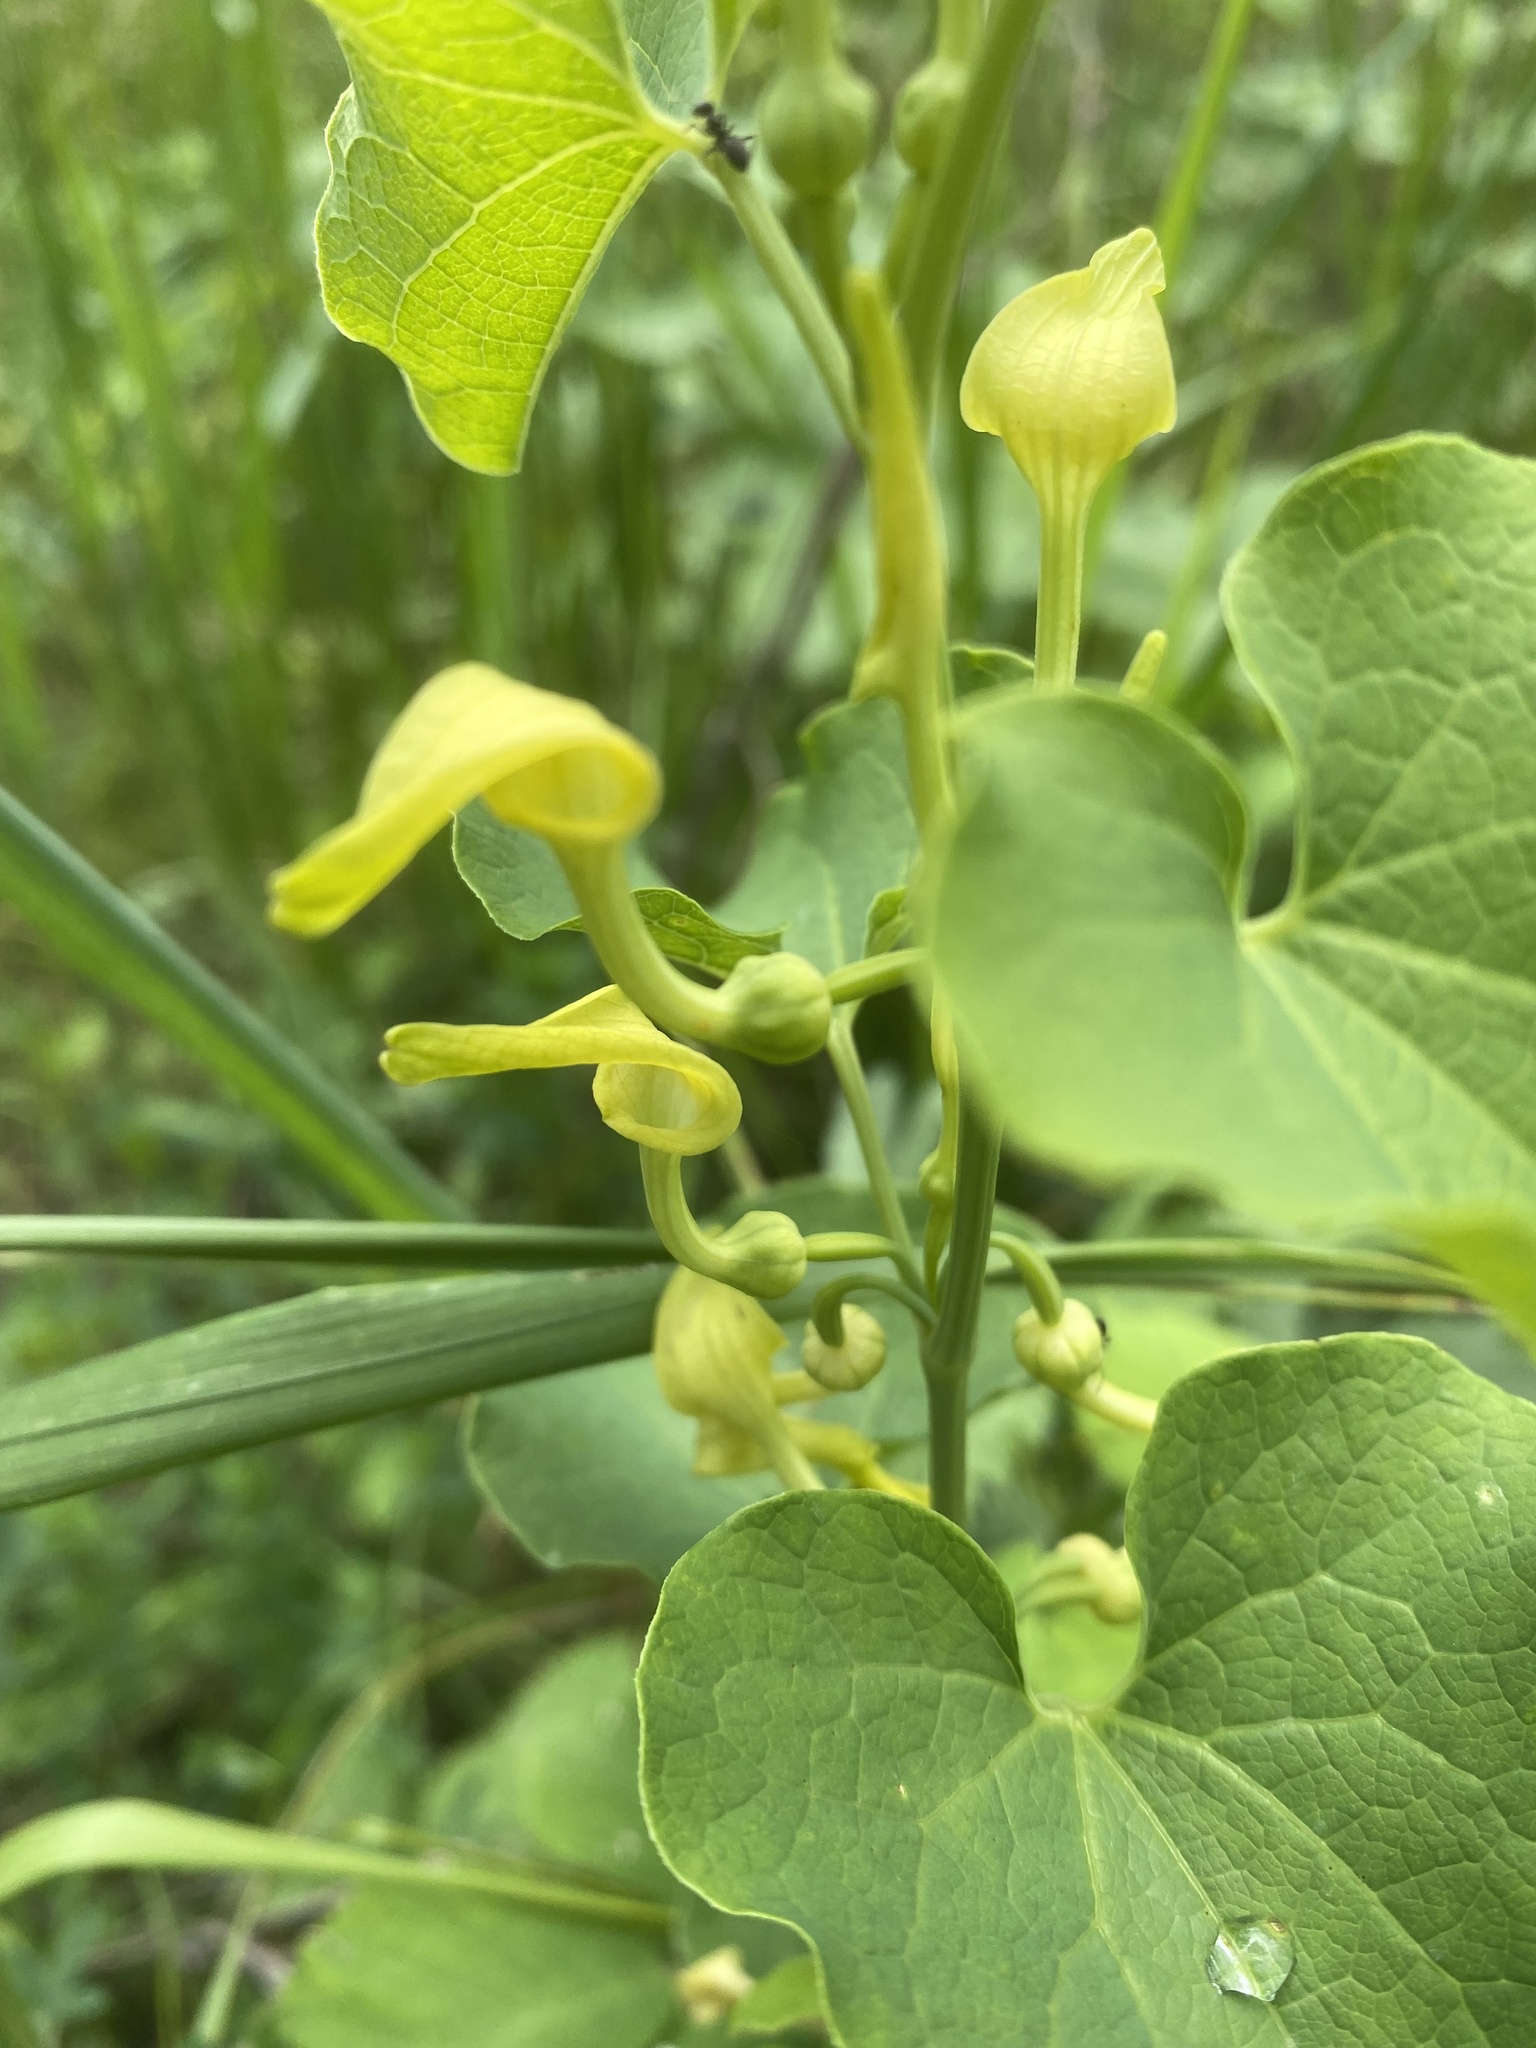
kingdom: Plantae
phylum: Tracheophyta
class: Magnoliopsida
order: Piperales
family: Aristolochiaceae
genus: Aristolochia
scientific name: Aristolochia clematitis
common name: Birthwort
